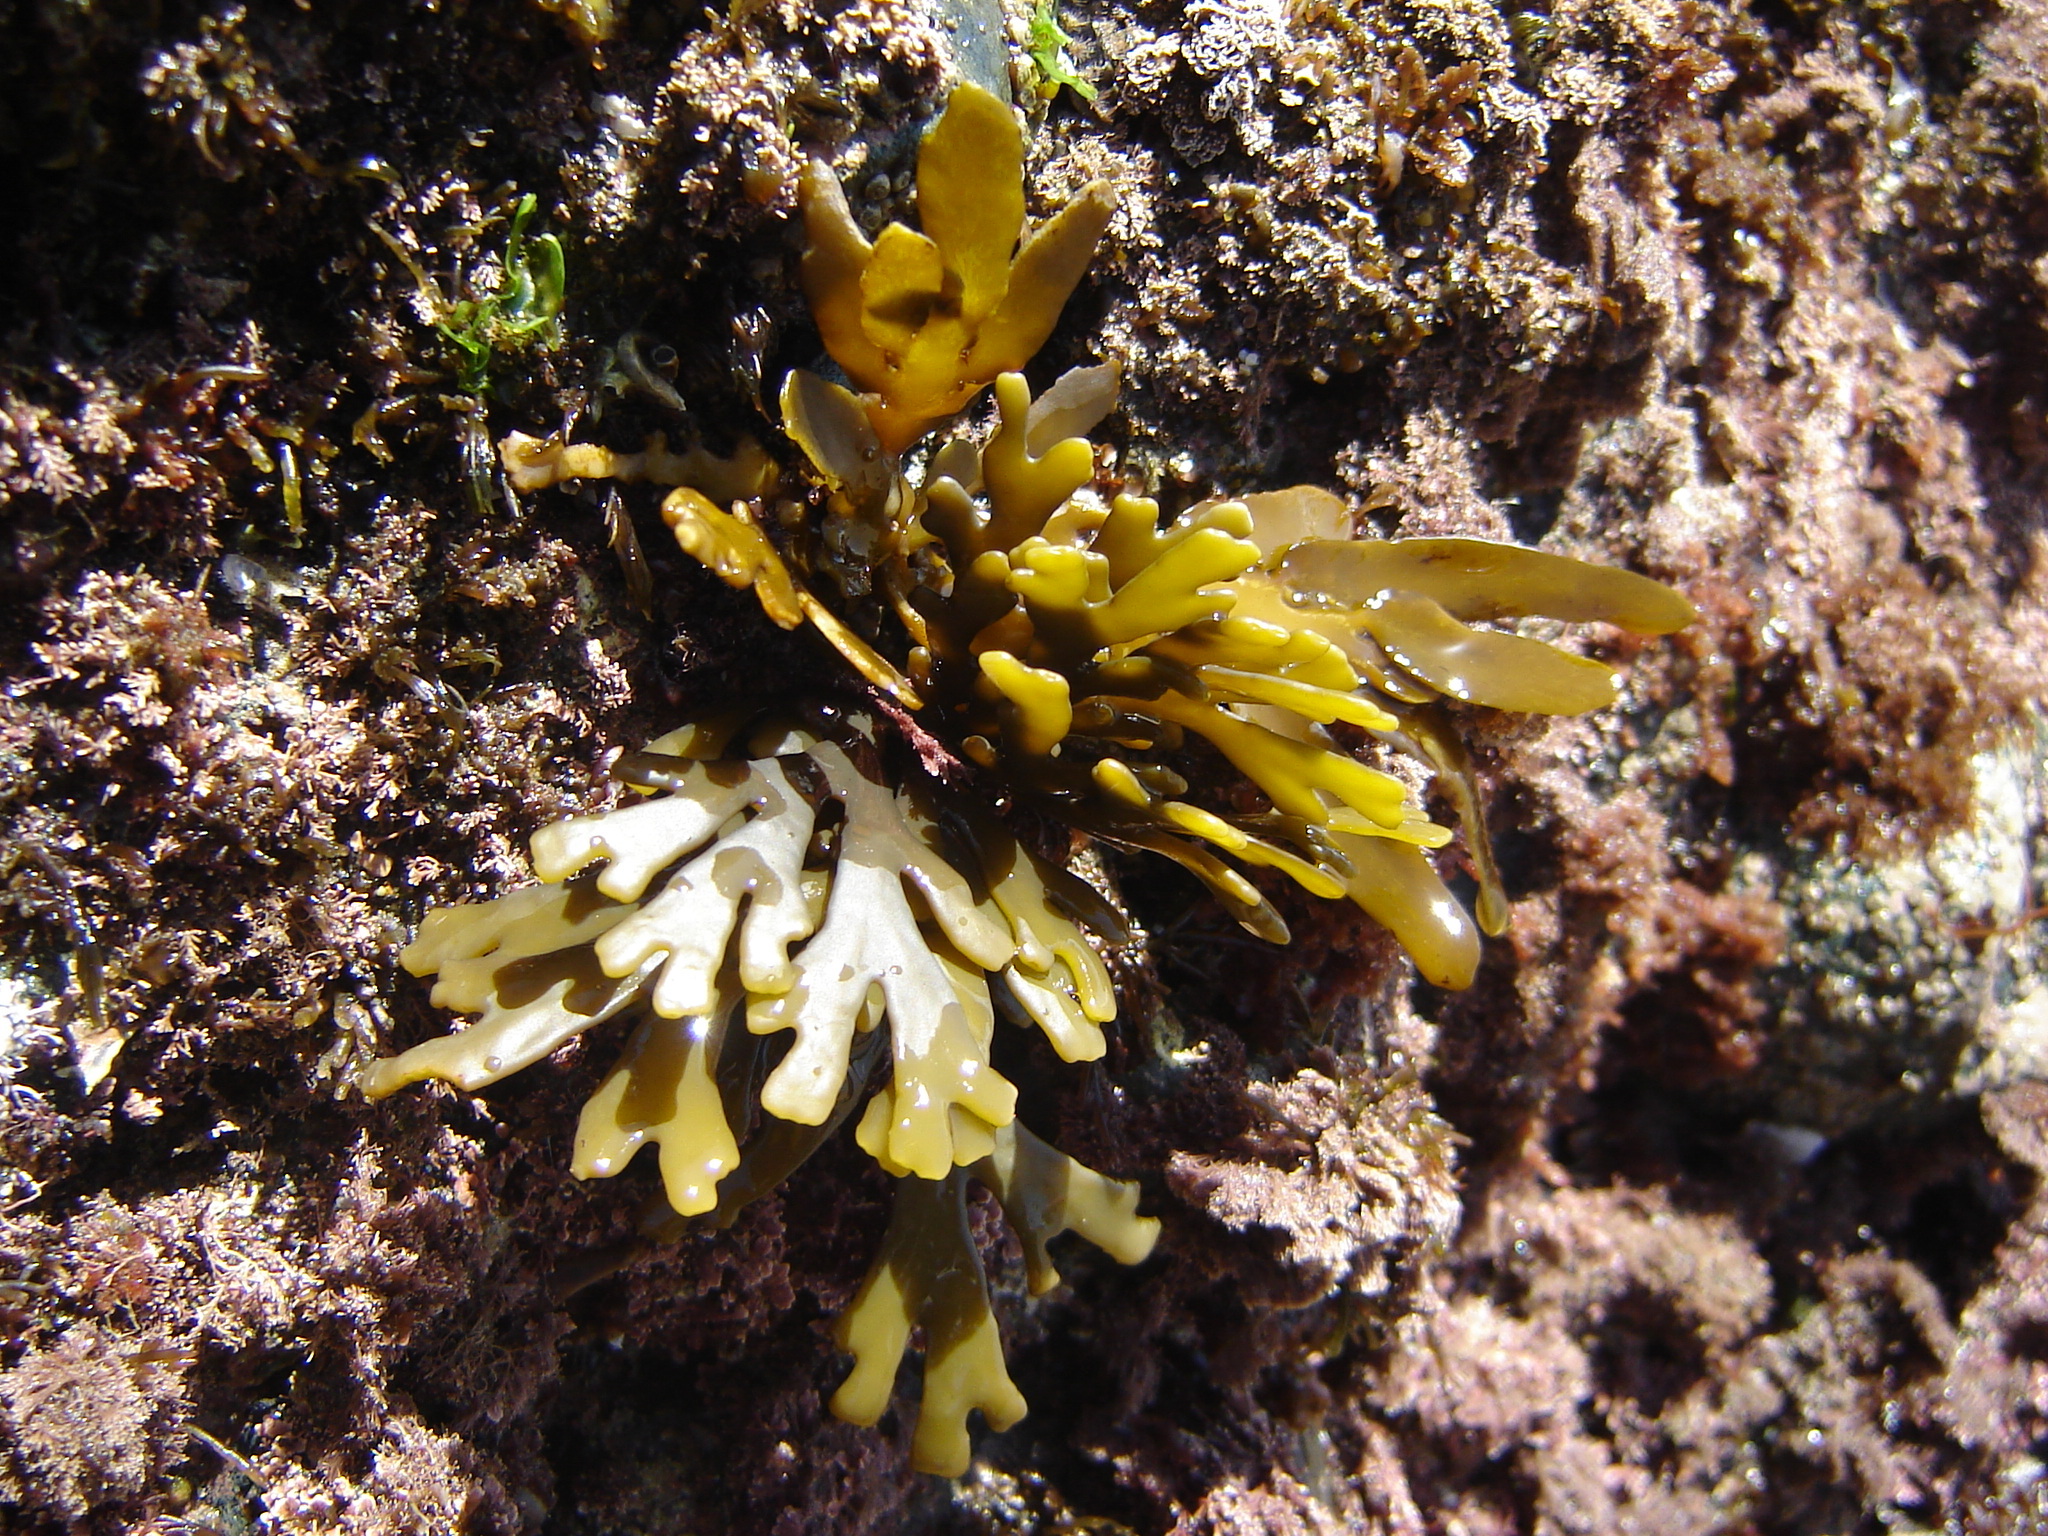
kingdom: Chromista
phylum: Ochrophyta
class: Phaeophyceae
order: Fucales
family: Xiphophoraceae
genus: Xiphophora
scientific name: Xiphophora chondrophylla
